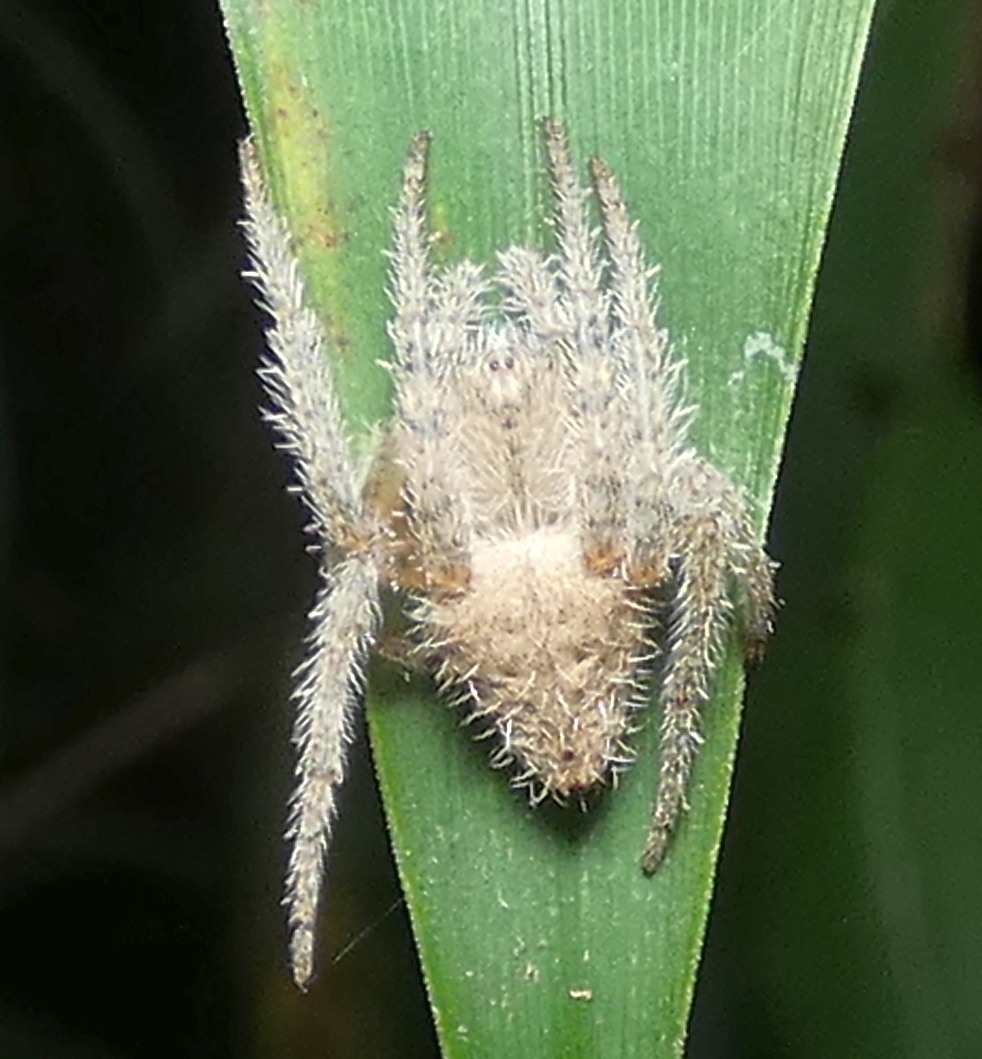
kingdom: Animalia
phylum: Arthropoda
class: Arachnida
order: Araneae
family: Araneidae
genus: Eriophora
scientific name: Eriophora edax
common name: Orb weavers
